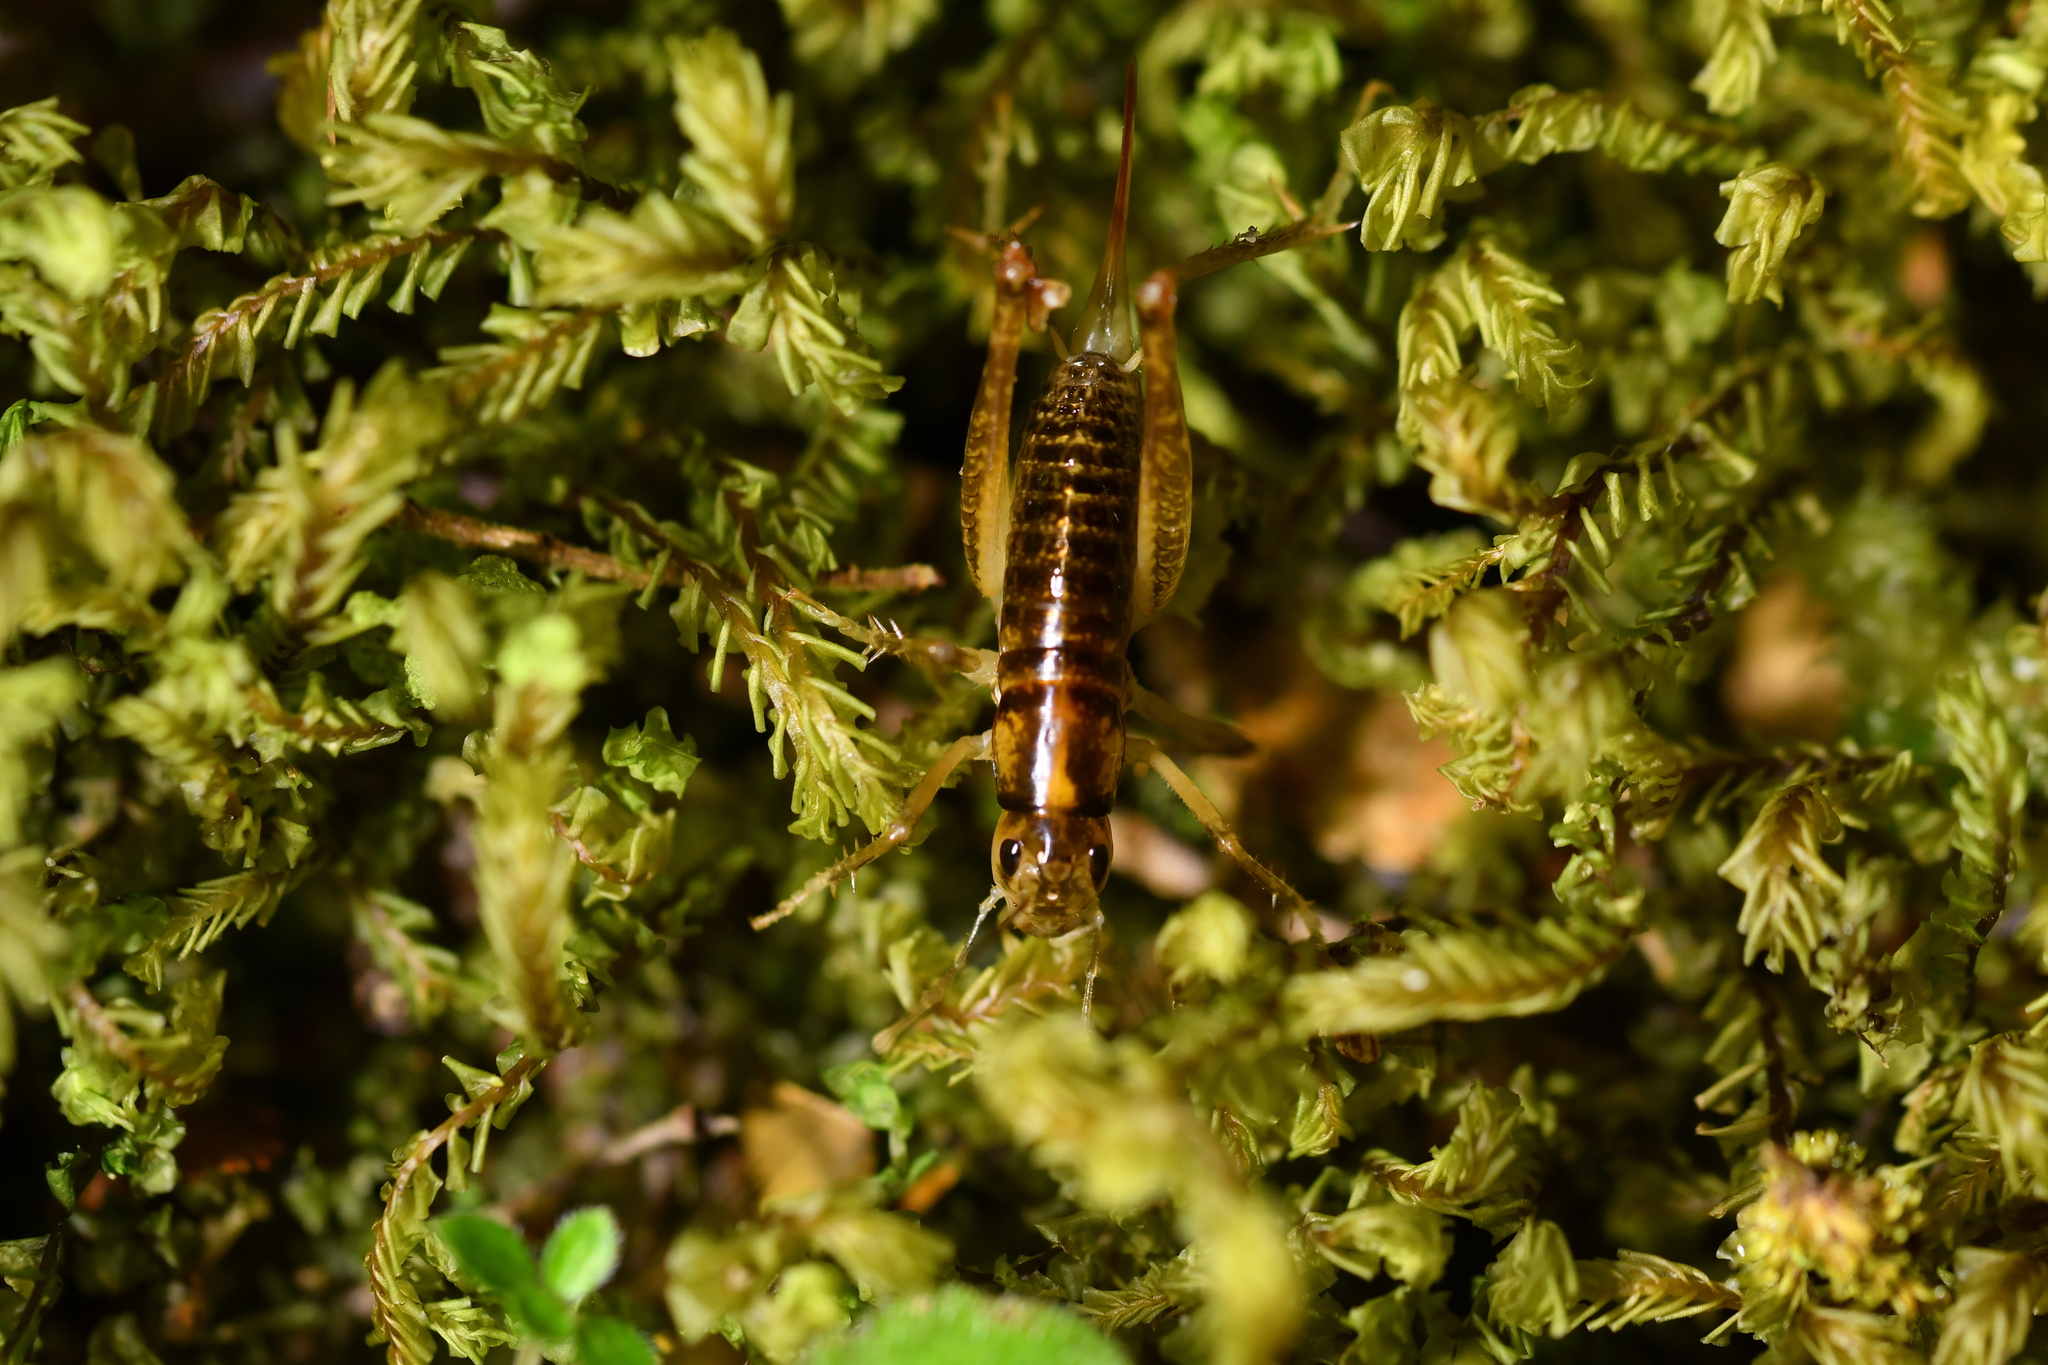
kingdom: Animalia
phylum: Arthropoda
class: Insecta
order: Orthoptera
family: Anostostomatidae
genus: Hemiandrus
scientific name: Hemiandrus maculifrons
